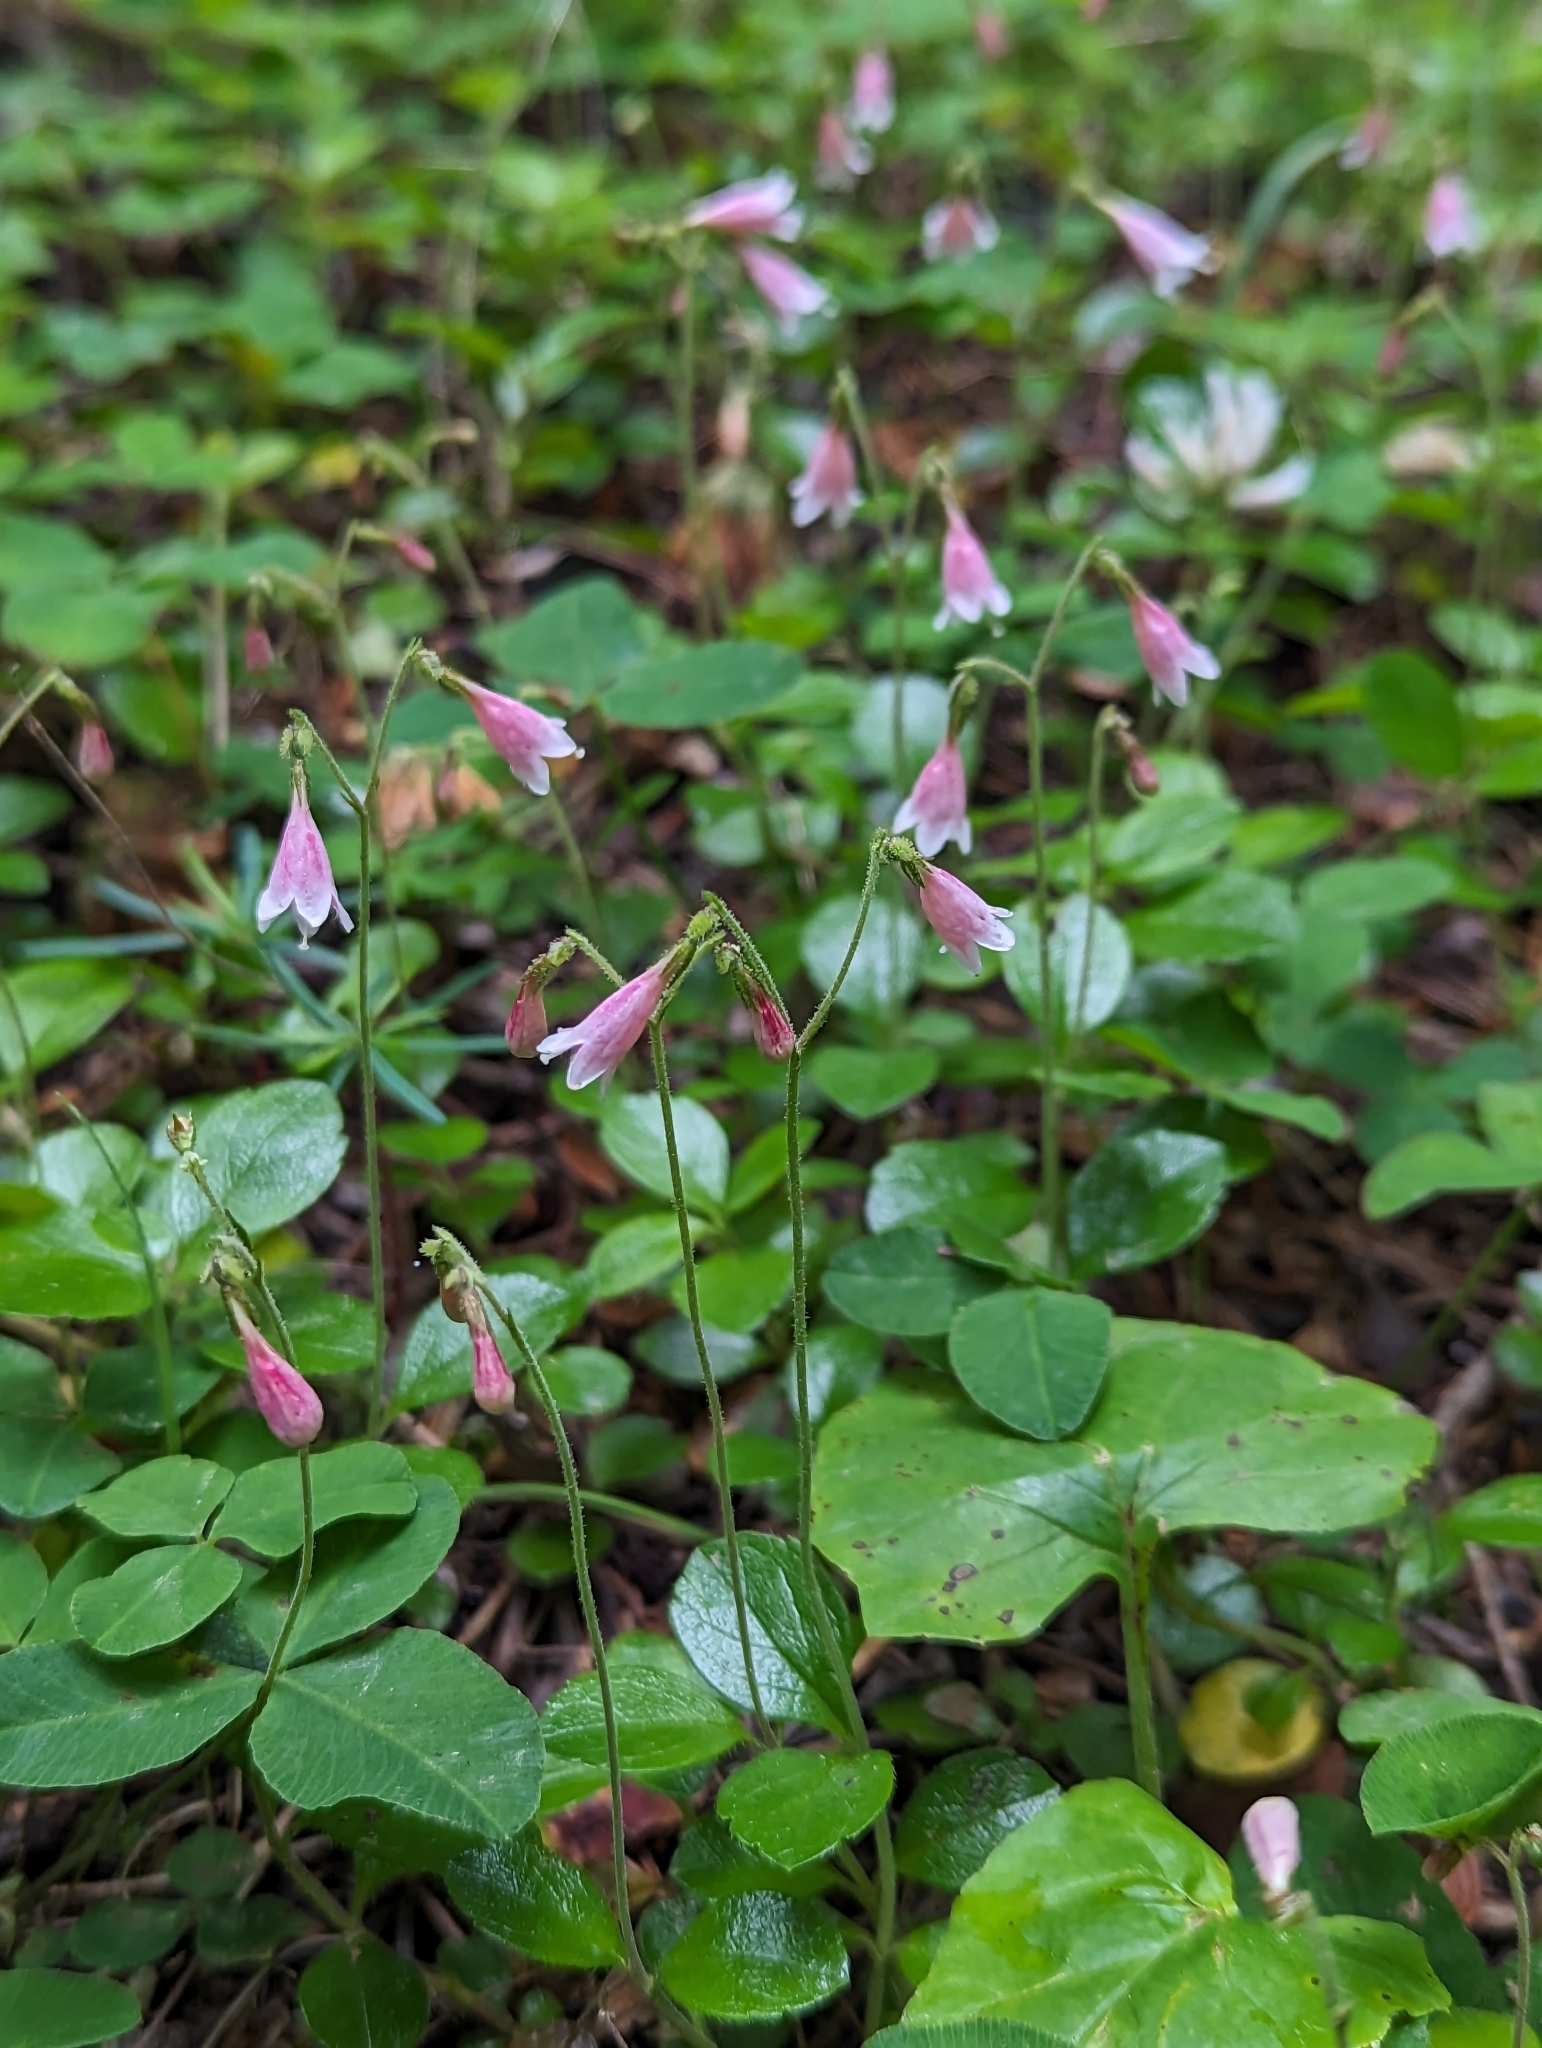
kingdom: Plantae
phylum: Tracheophyta
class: Magnoliopsida
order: Dipsacales
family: Caprifoliaceae
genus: Linnaea
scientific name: Linnaea borealis
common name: Twinflower
